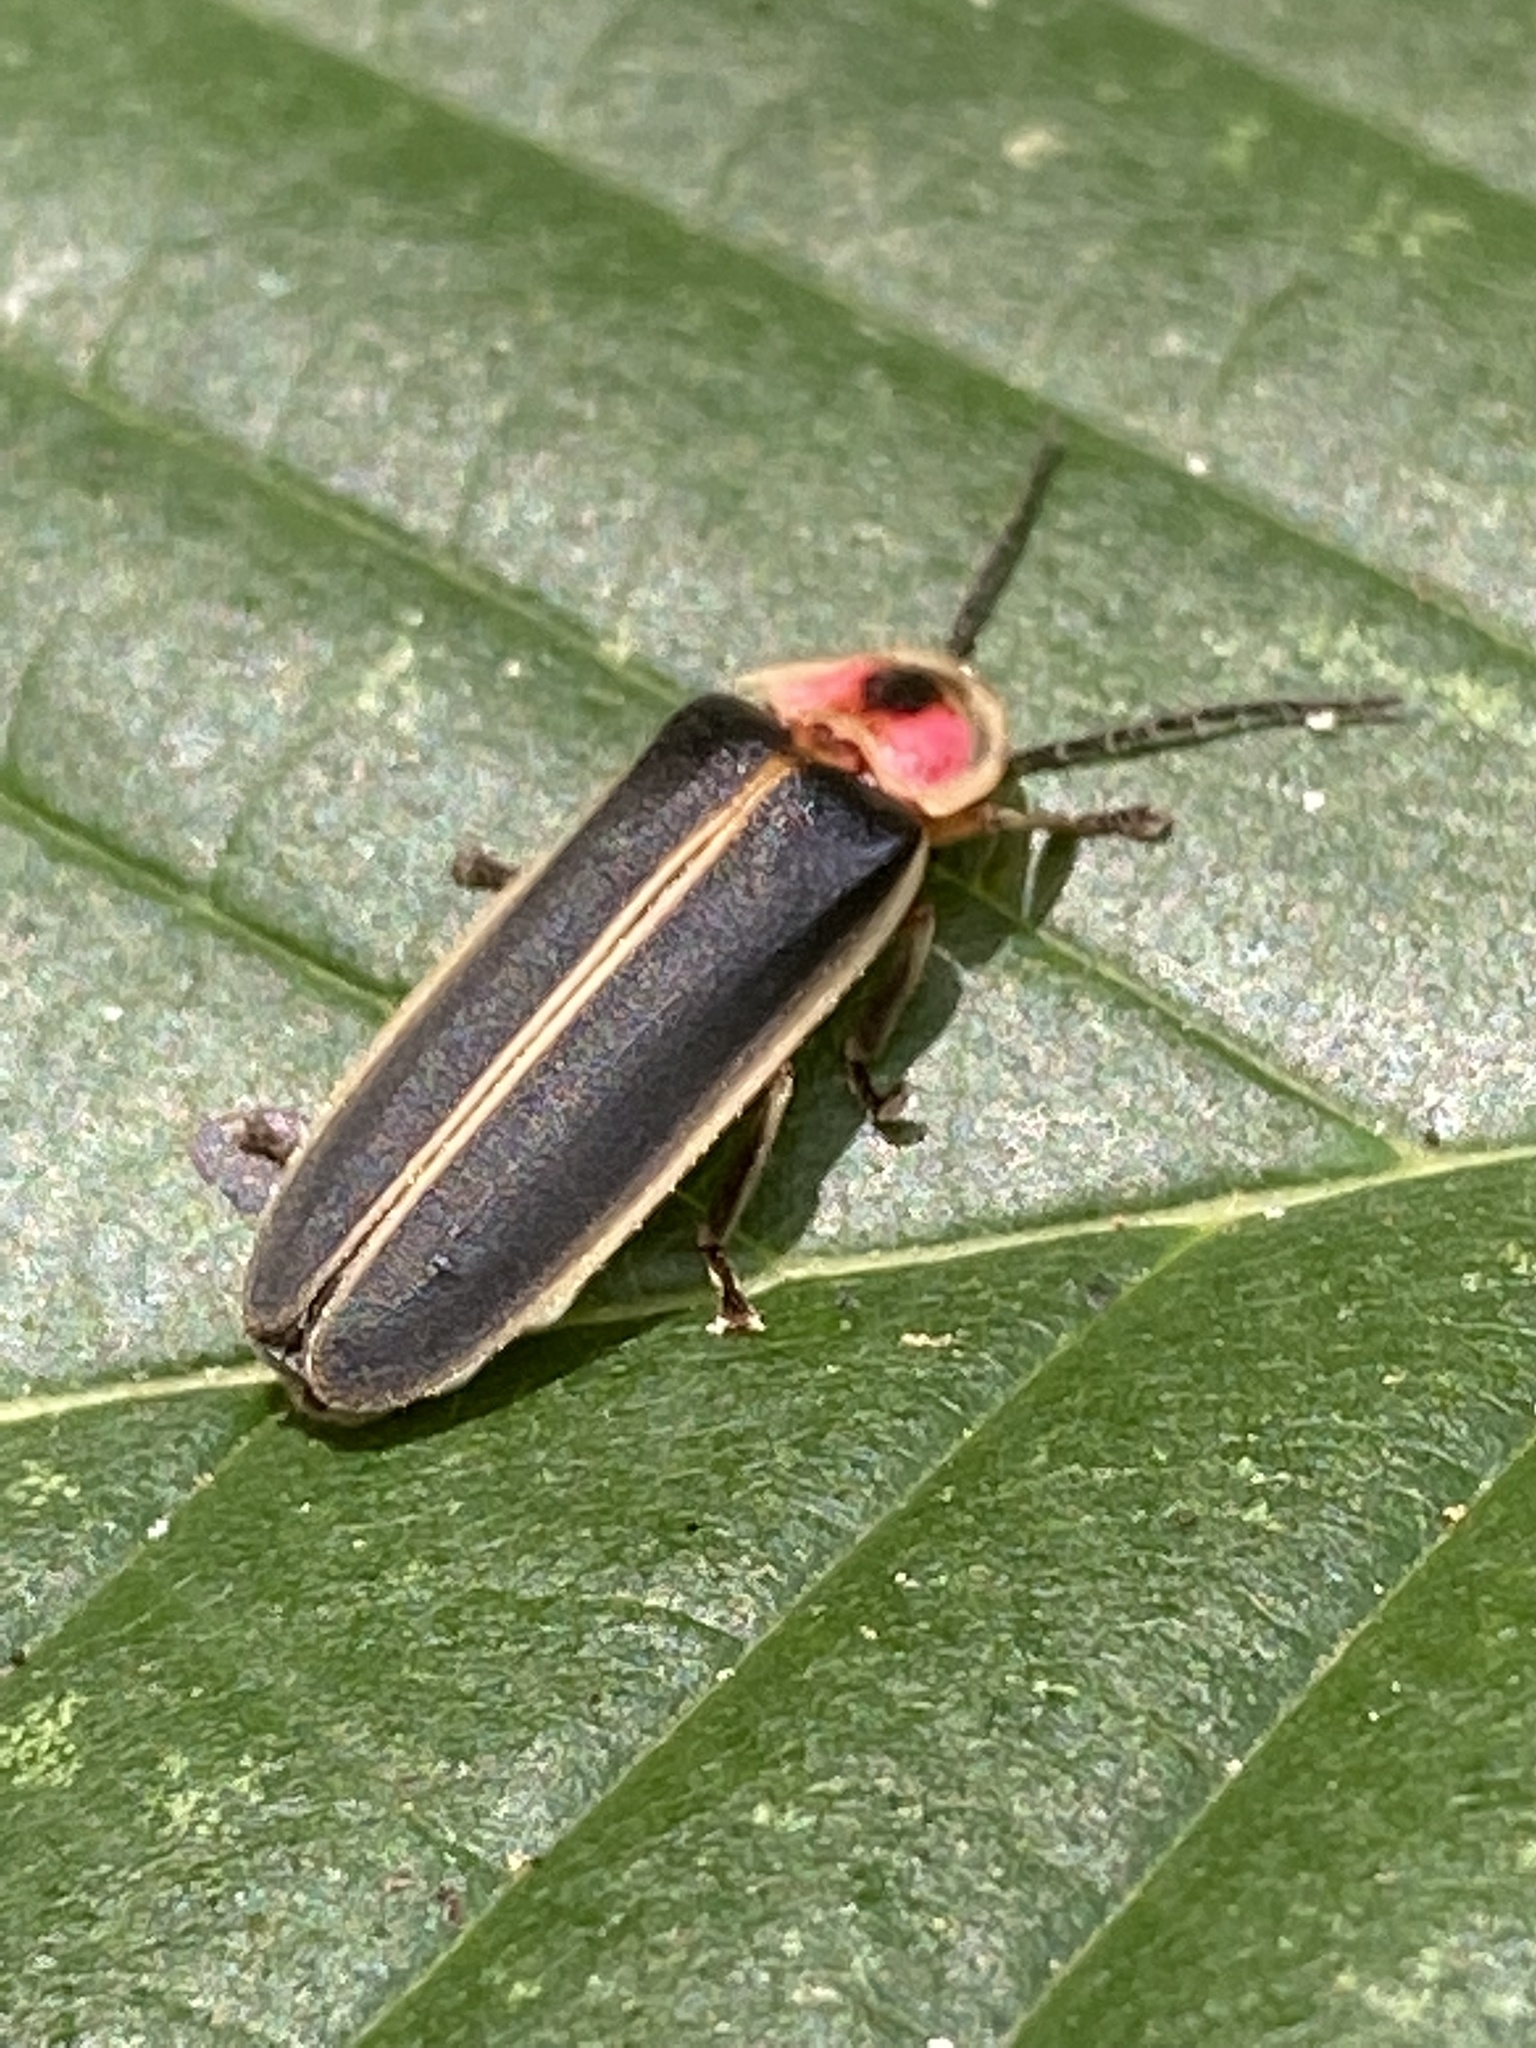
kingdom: Animalia
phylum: Arthropoda
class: Insecta
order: Coleoptera
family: Lampyridae
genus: Photinus
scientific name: Photinus pyralis
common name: Big dipper firefly
